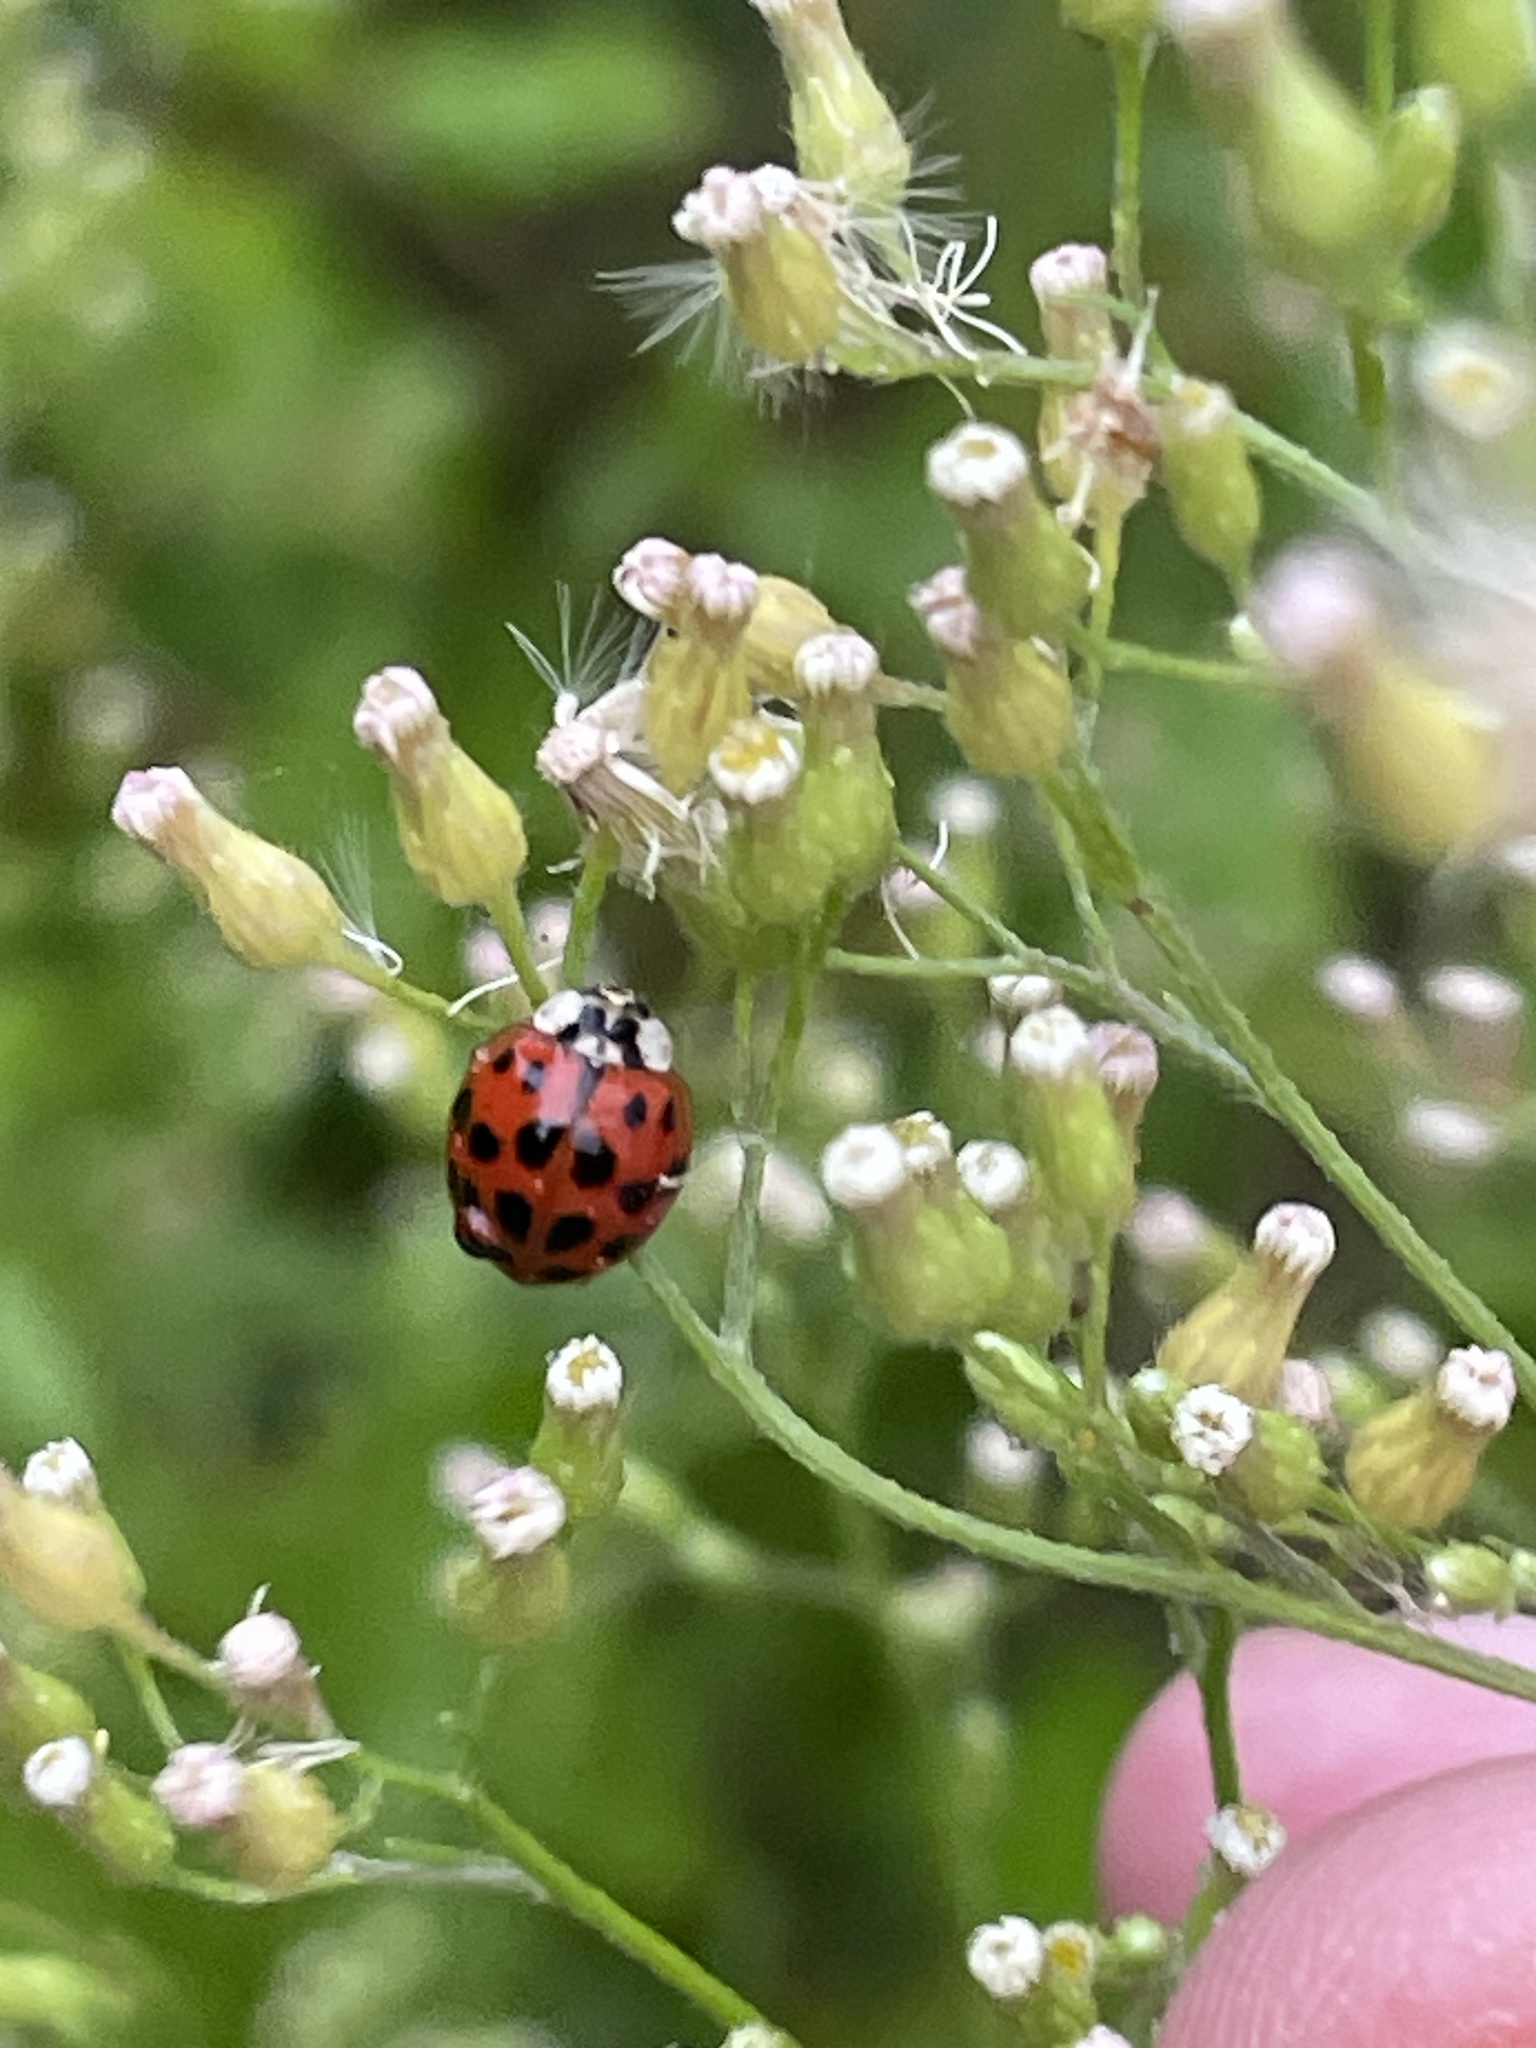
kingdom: Animalia
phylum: Arthropoda
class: Insecta
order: Coleoptera
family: Coccinellidae
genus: Harmonia
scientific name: Harmonia axyridis
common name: Harlequin ladybird
